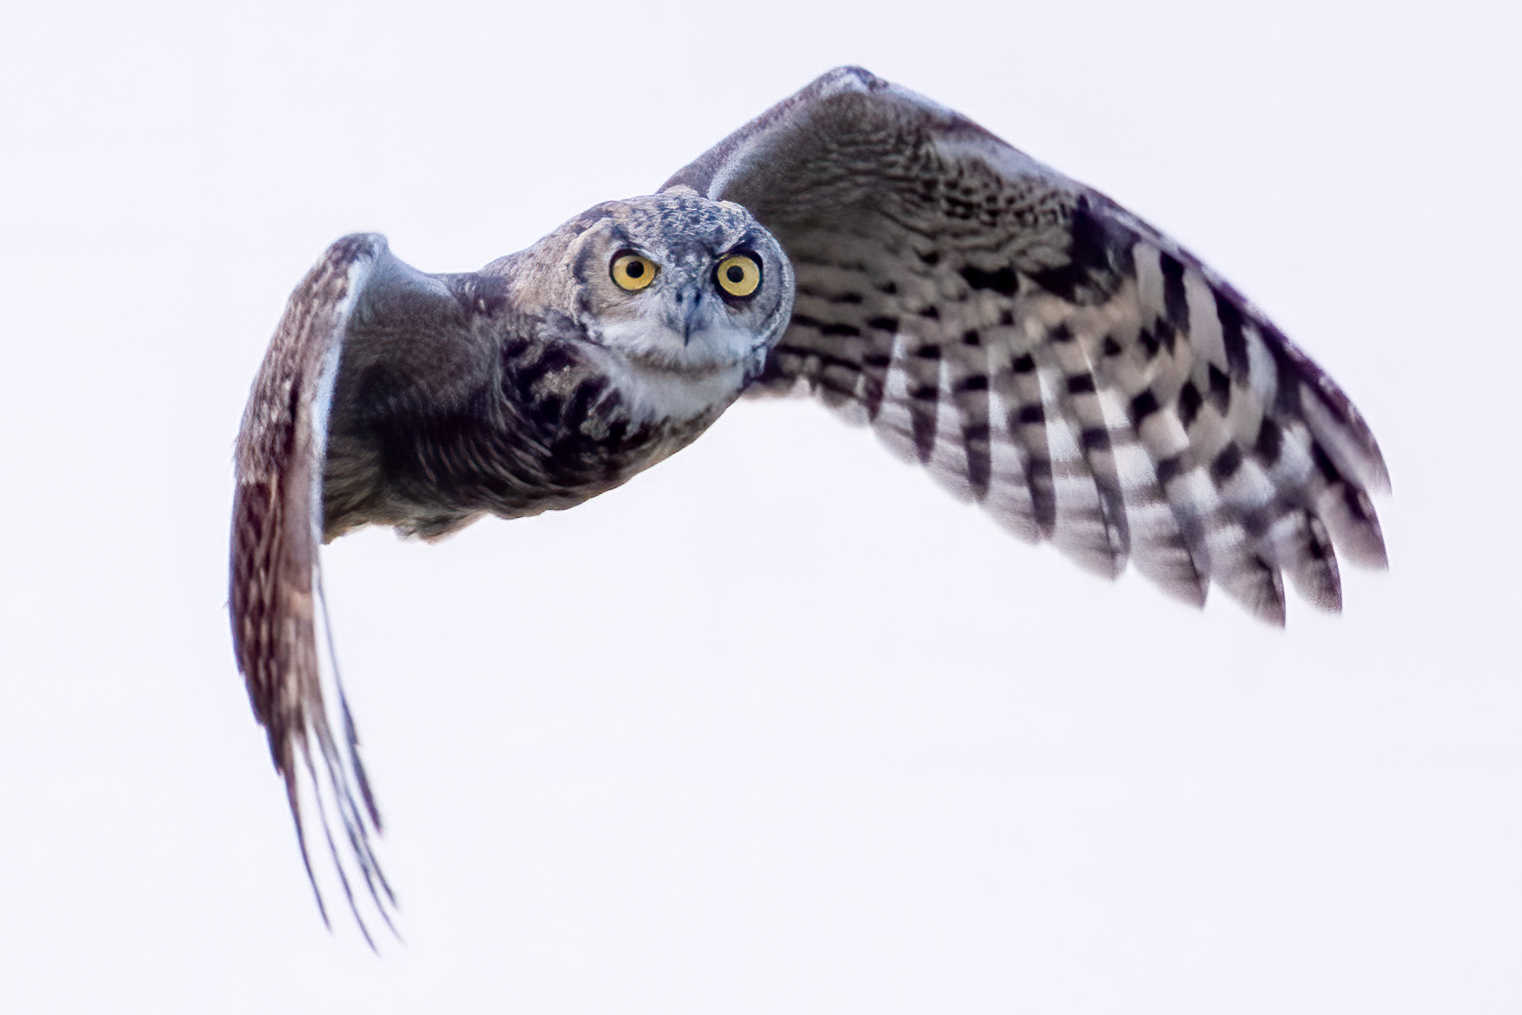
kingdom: Animalia
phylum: Chordata
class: Aves
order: Strigiformes
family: Strigidae
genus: Bubo
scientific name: Bubo virginianus
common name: Great horned owl
